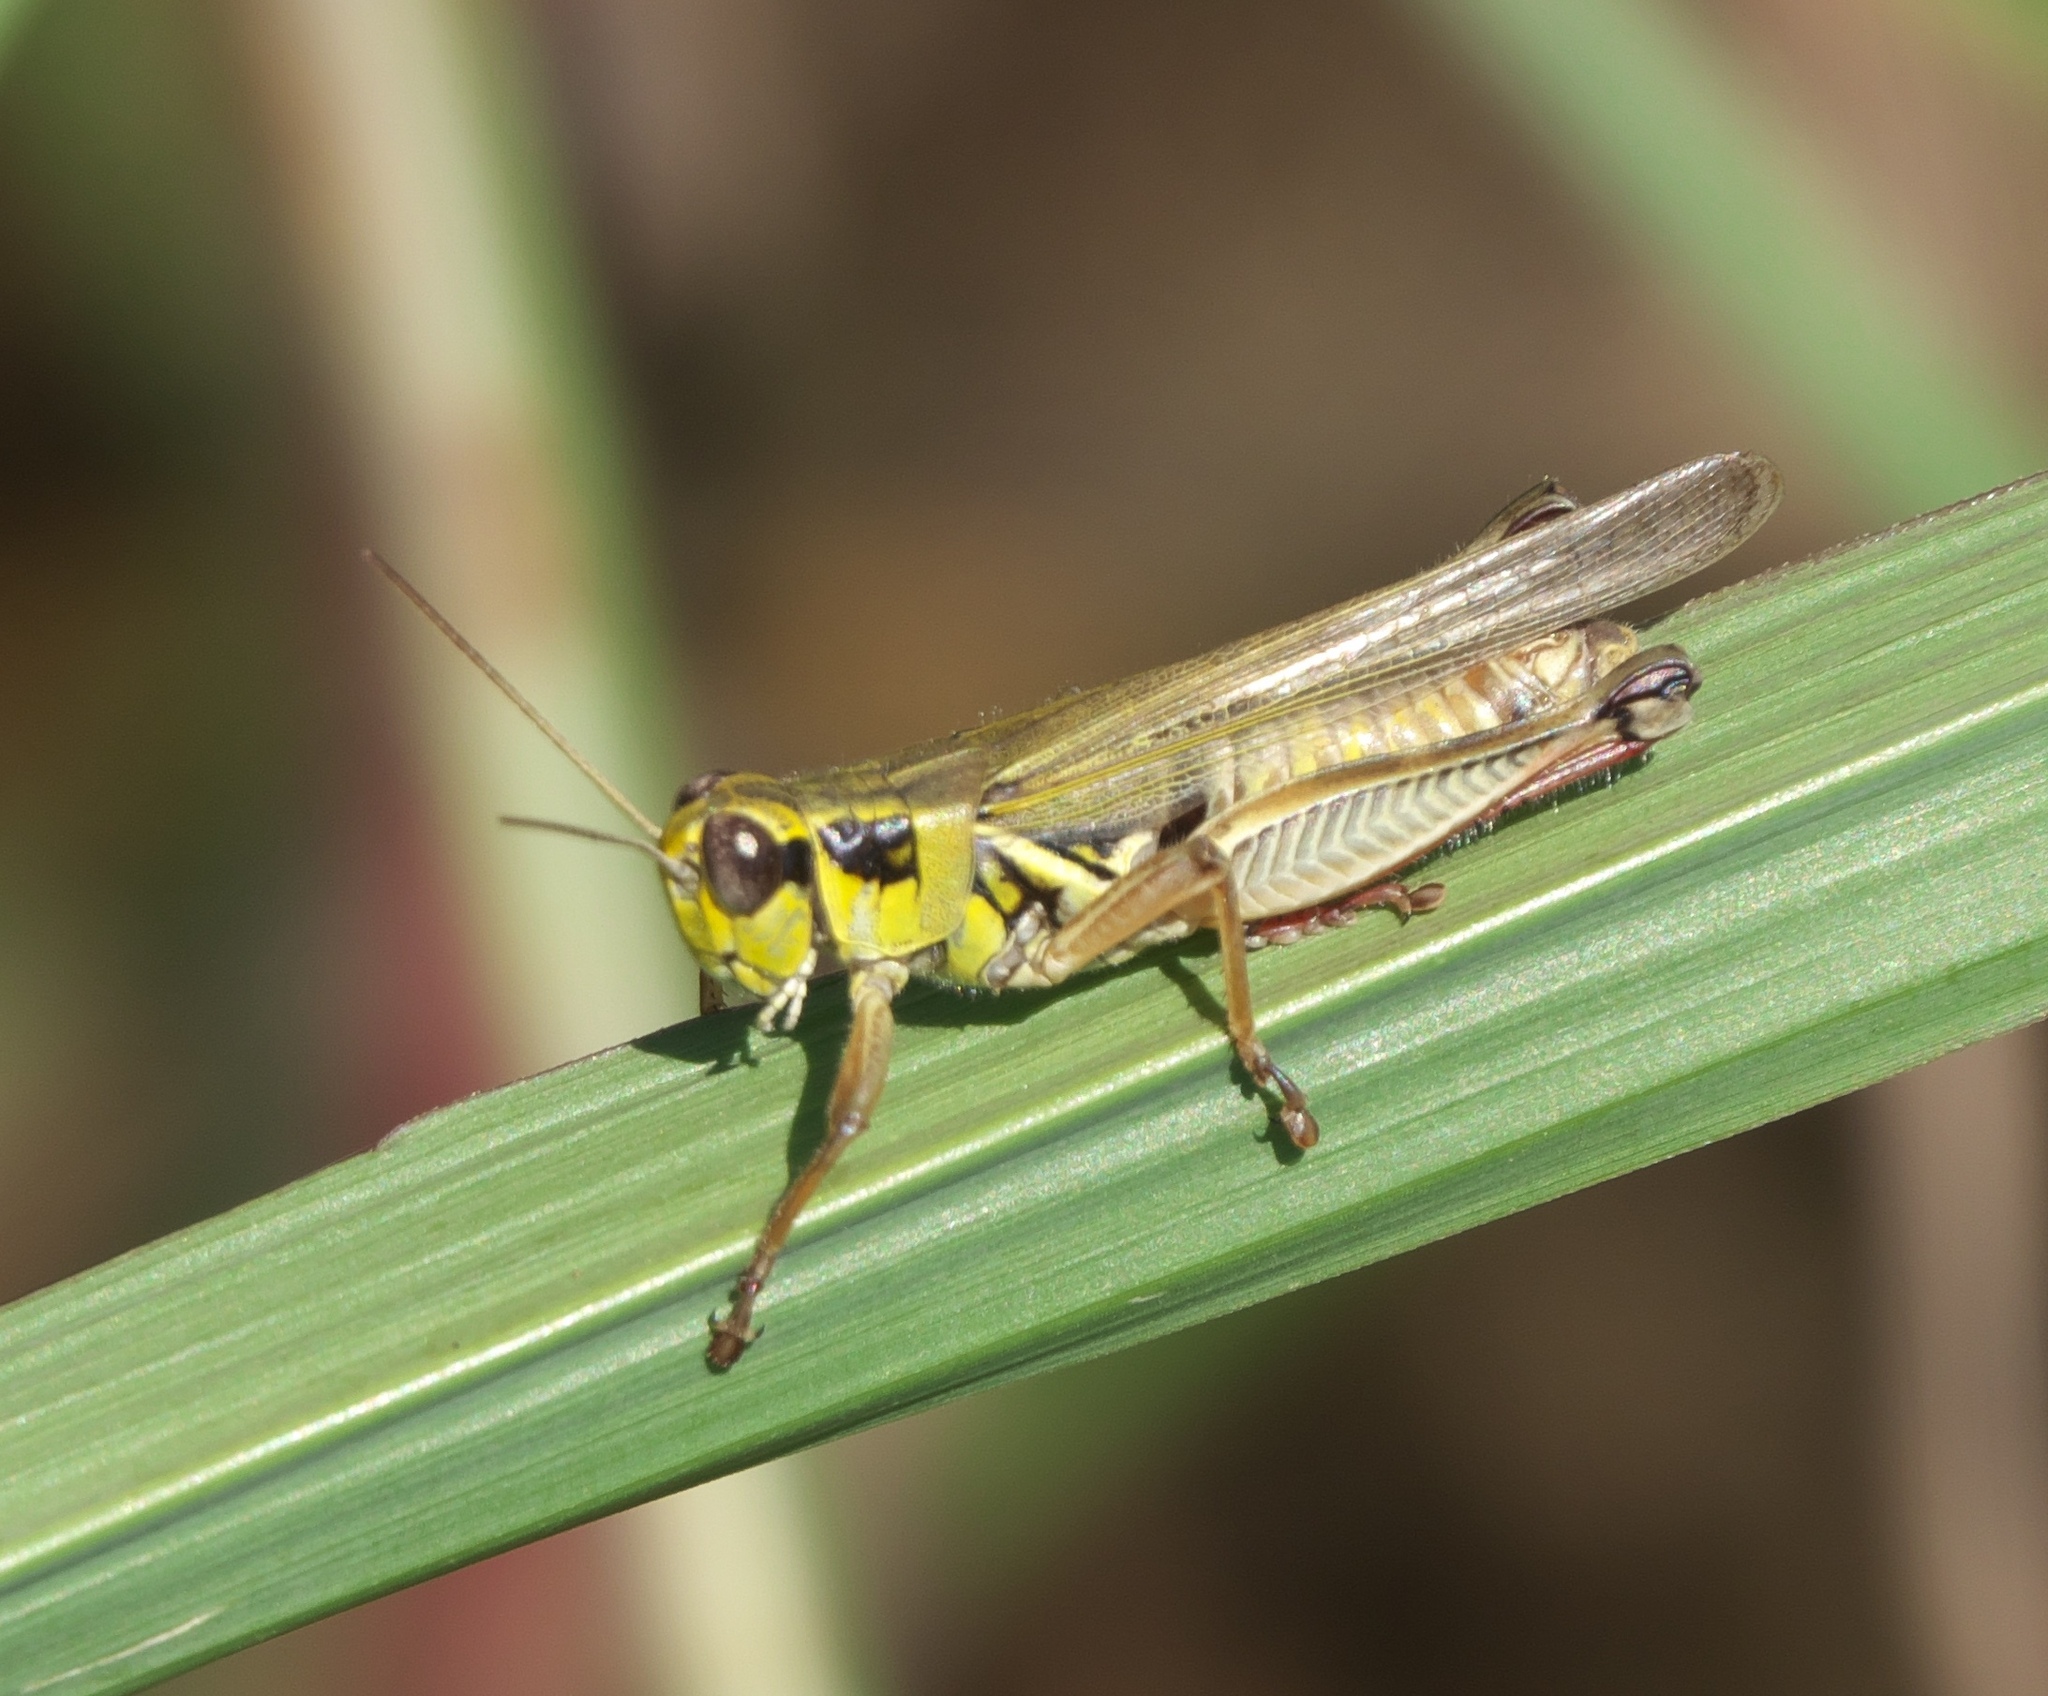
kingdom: Animalia
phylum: Arthropoda
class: Insecta
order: Orthoptera
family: Acrididae
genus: Melanoplus
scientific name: Melanoplus femurrubrum
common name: Red-legged grasshopper
